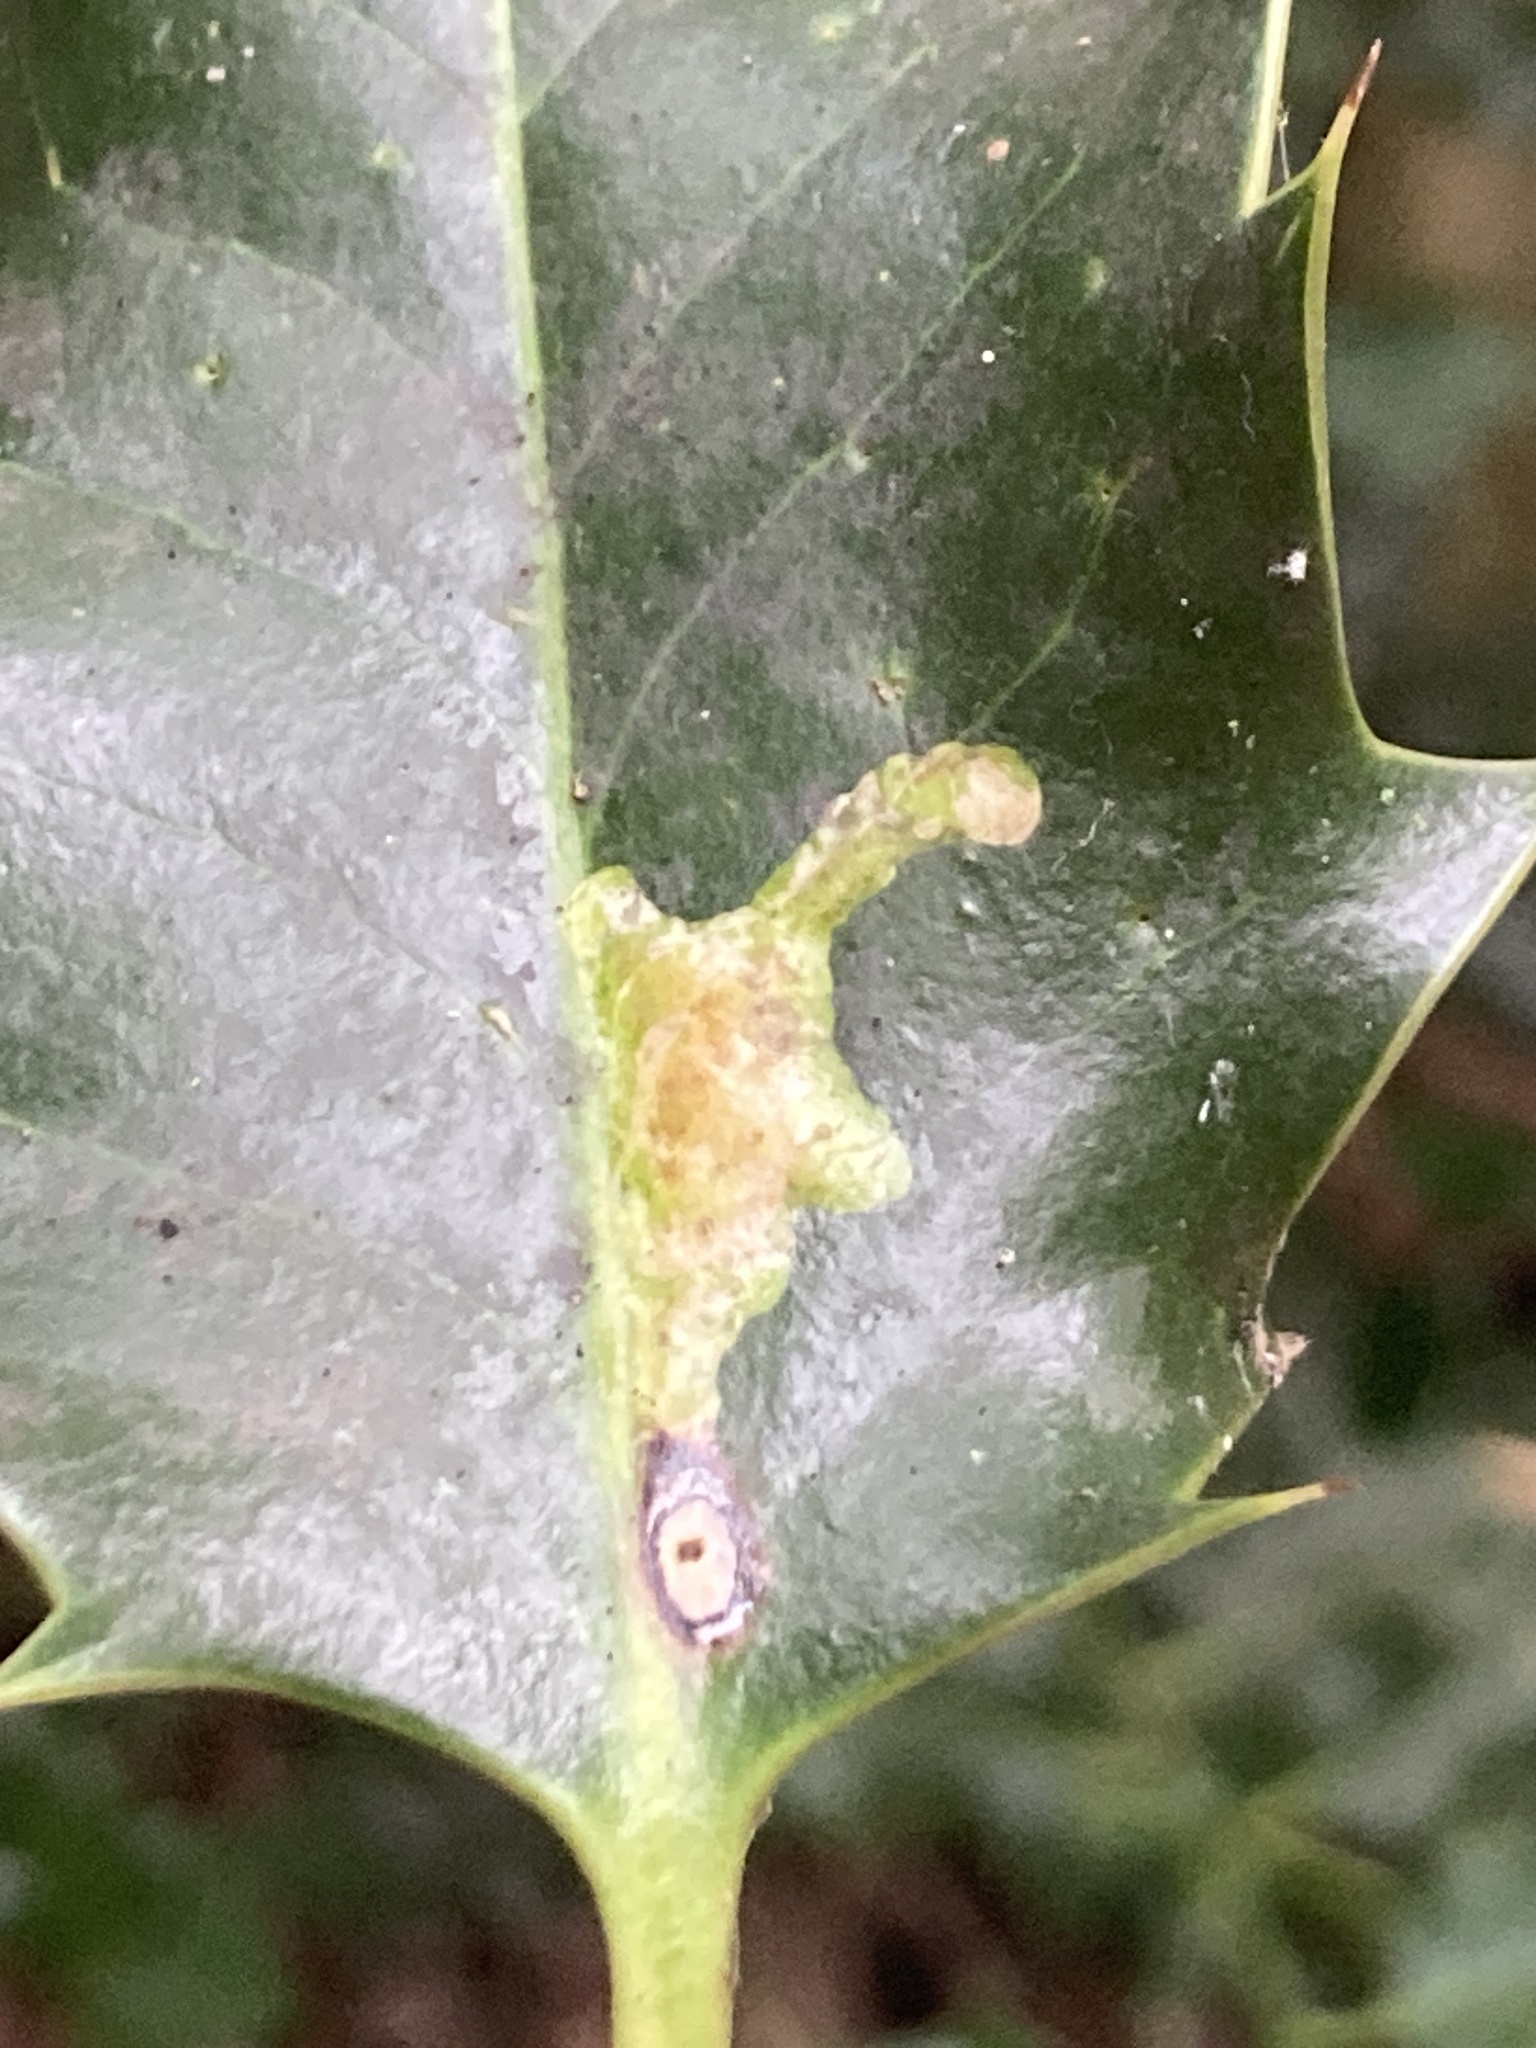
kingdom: Animalia
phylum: Arthropoda
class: Insecta
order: Diptera
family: Agromyzidae
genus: Phytomyza
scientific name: Phytomyza ilicis
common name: Holly leafminer
